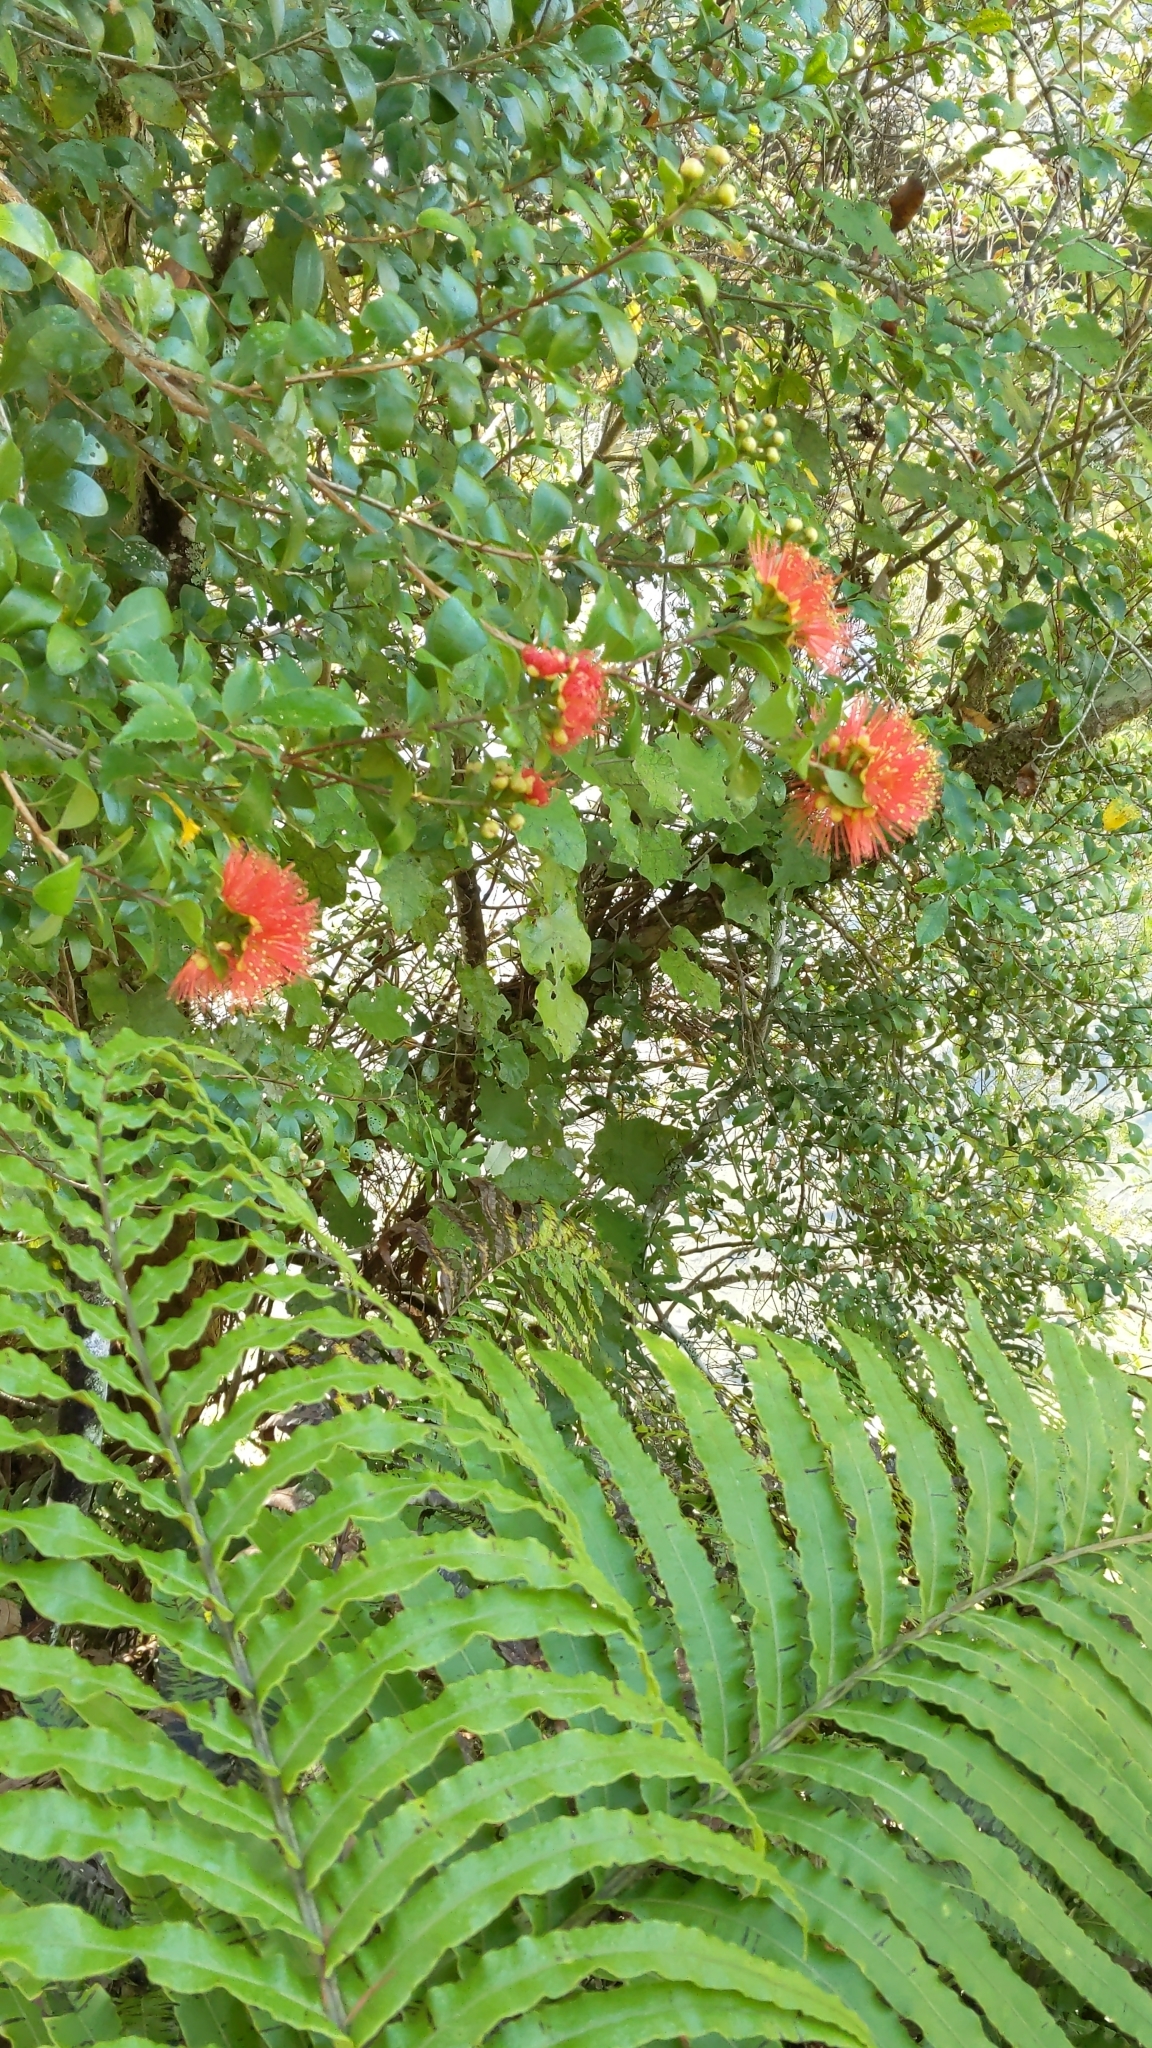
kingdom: Plantae
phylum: Tracheophyta
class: Magnoliopsida
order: Myrtales
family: Myrtaceae
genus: Metrosideros
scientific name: Metrosideros fulgens
